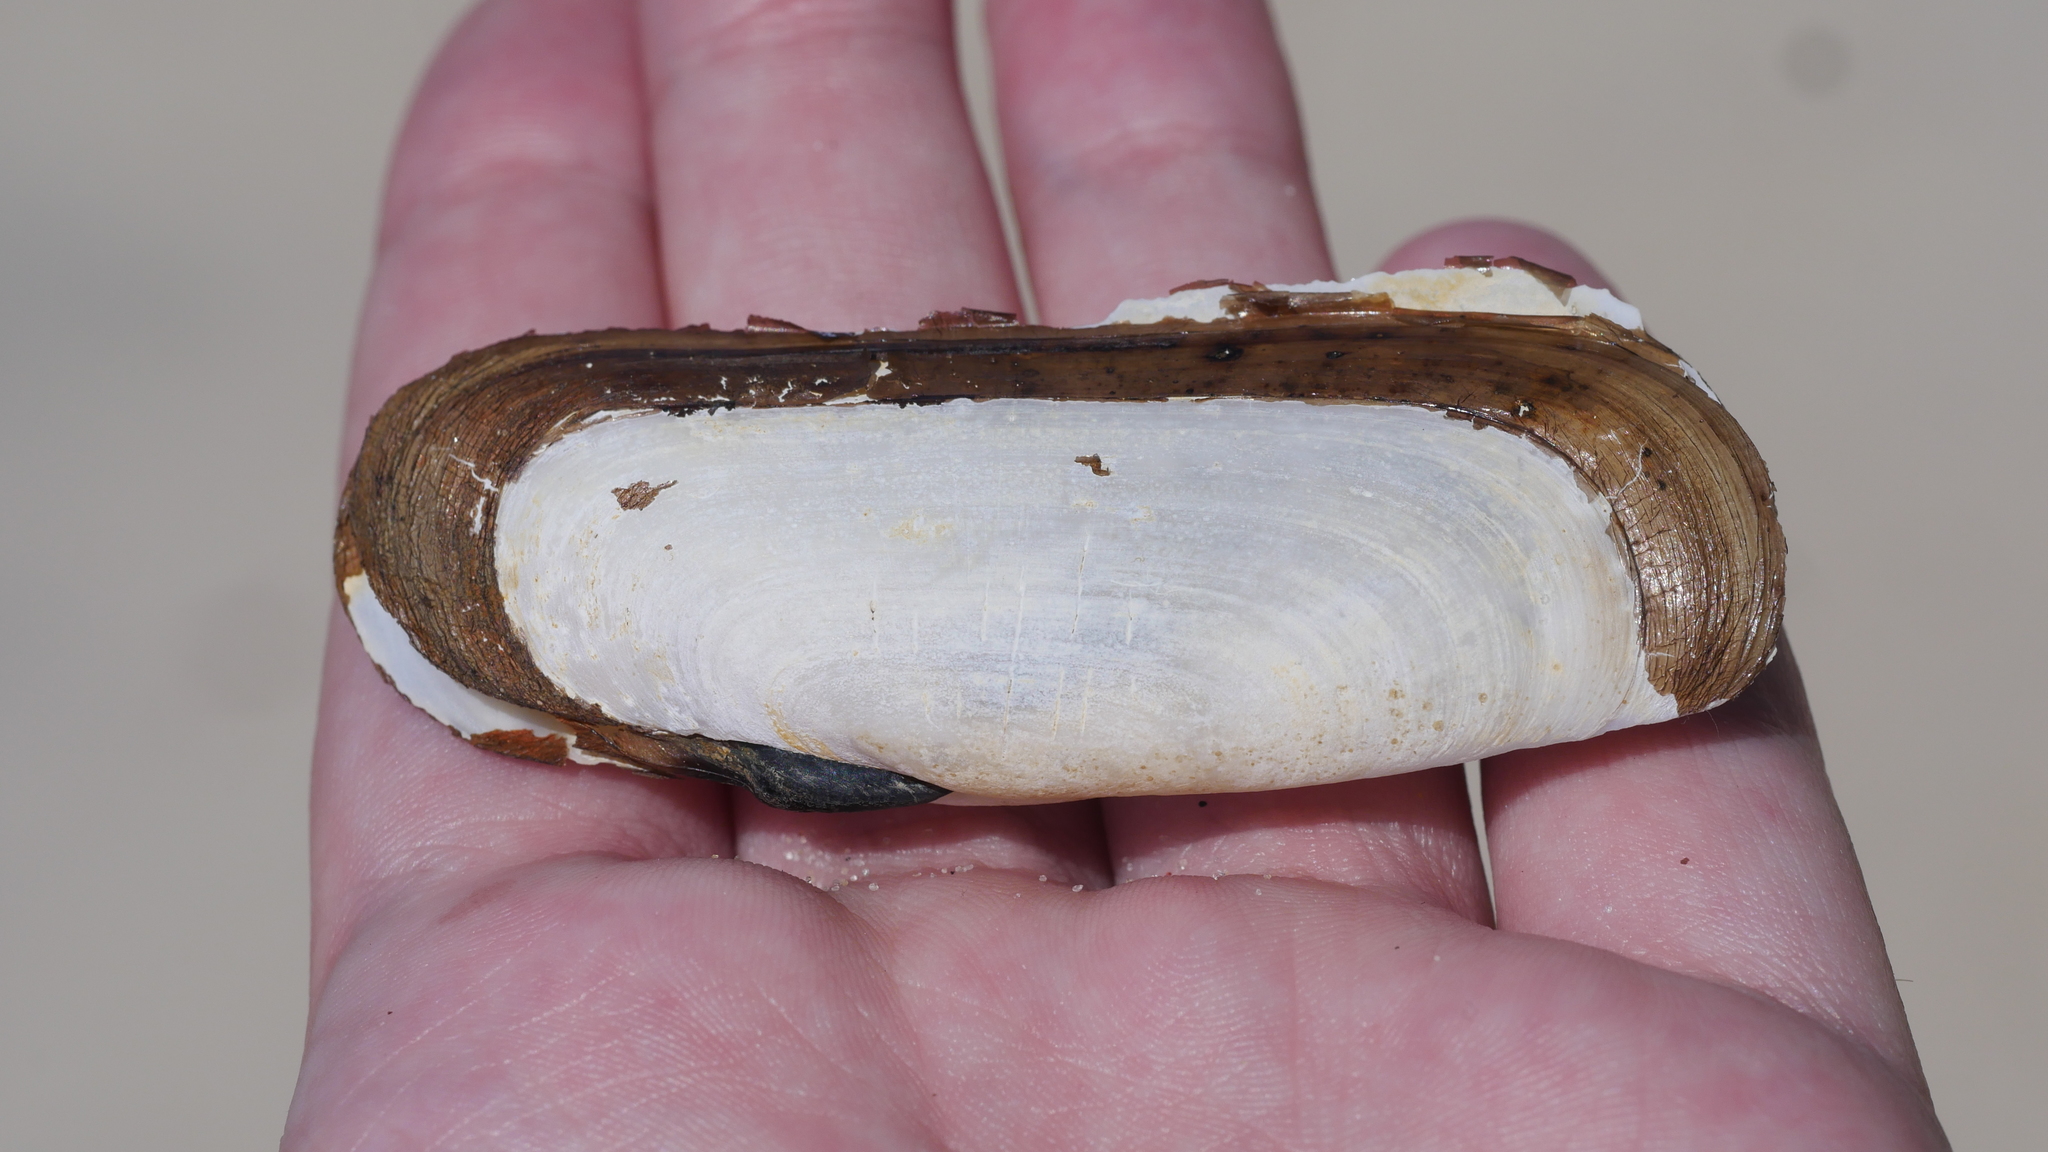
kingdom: Animalia
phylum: Mollusca
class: Bivalvia
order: Cardiida
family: Solecurtidae
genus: Tagelus
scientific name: Tagelus plebeius
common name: Stout tagelus
